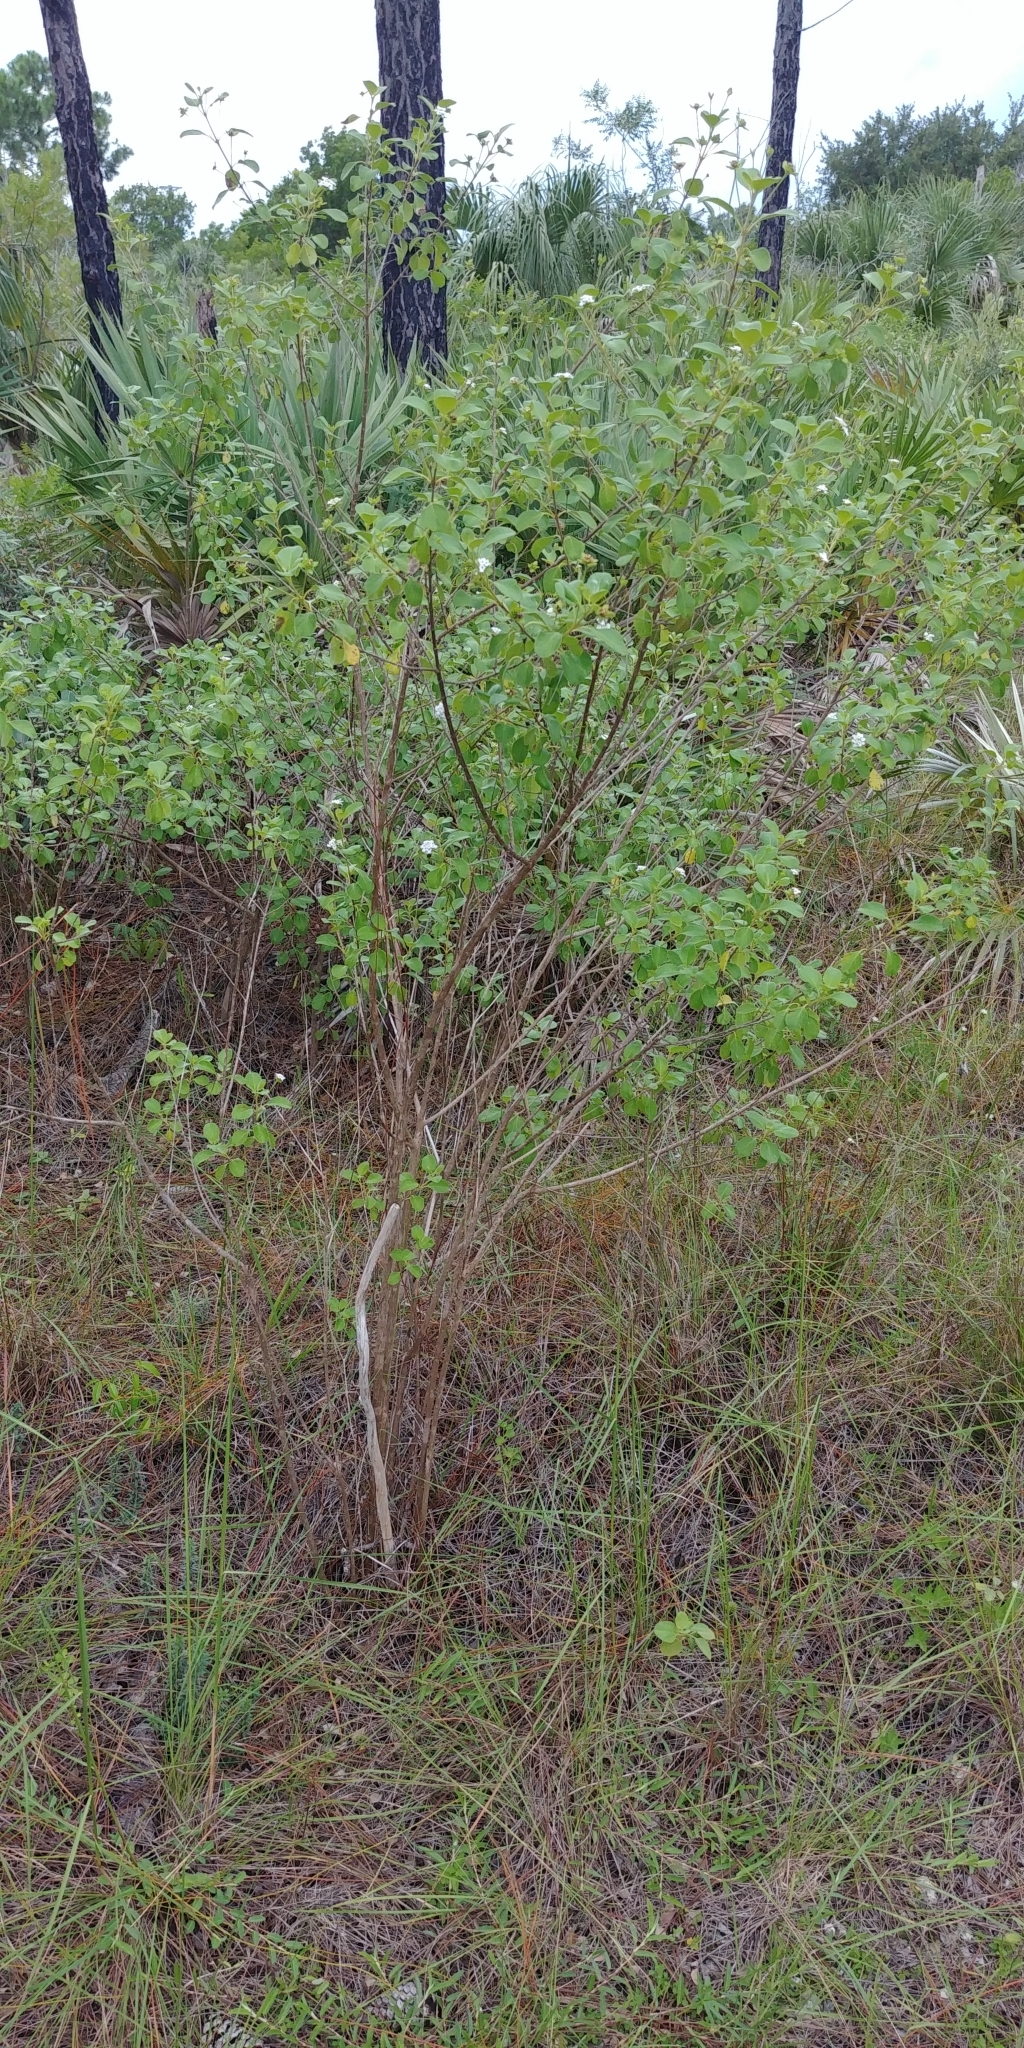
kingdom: Plantae
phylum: Tracheophyta
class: Magnoliopsida
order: Lamiales
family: Verbenaceae
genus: Lantana
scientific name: Lantana involucrata
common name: Black sage
